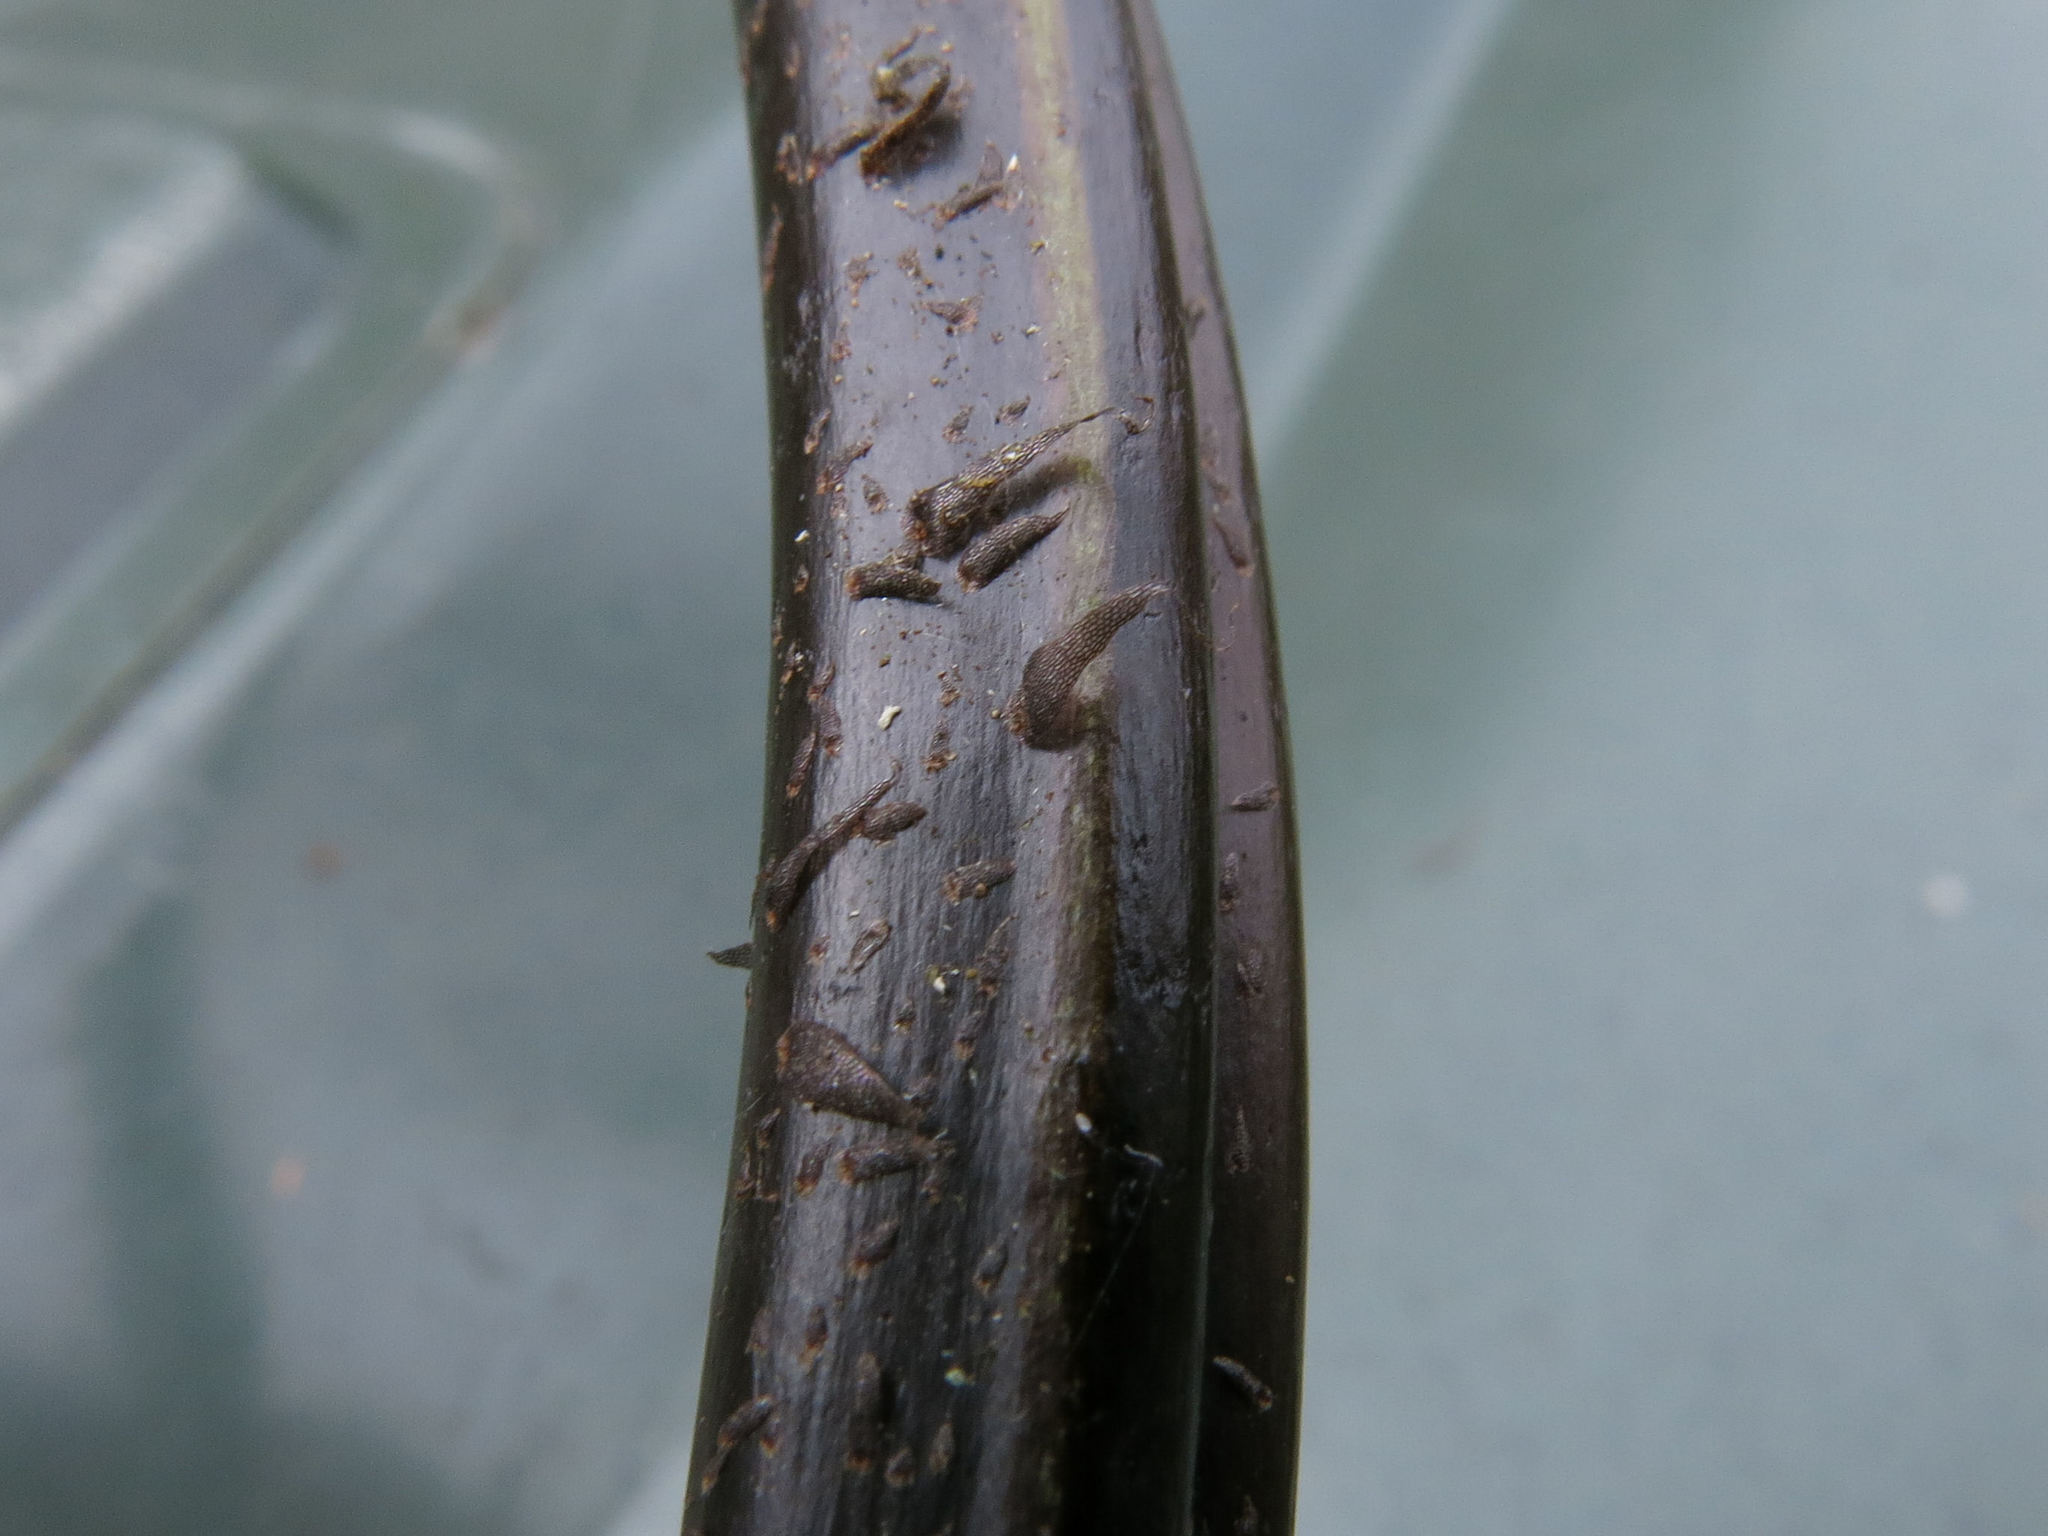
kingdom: Plantae
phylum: Tracheophyta
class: Polypodiopsida
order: Polypodiales
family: Aspleniaceae
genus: Asplenium
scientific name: Asplenium obtusatum
